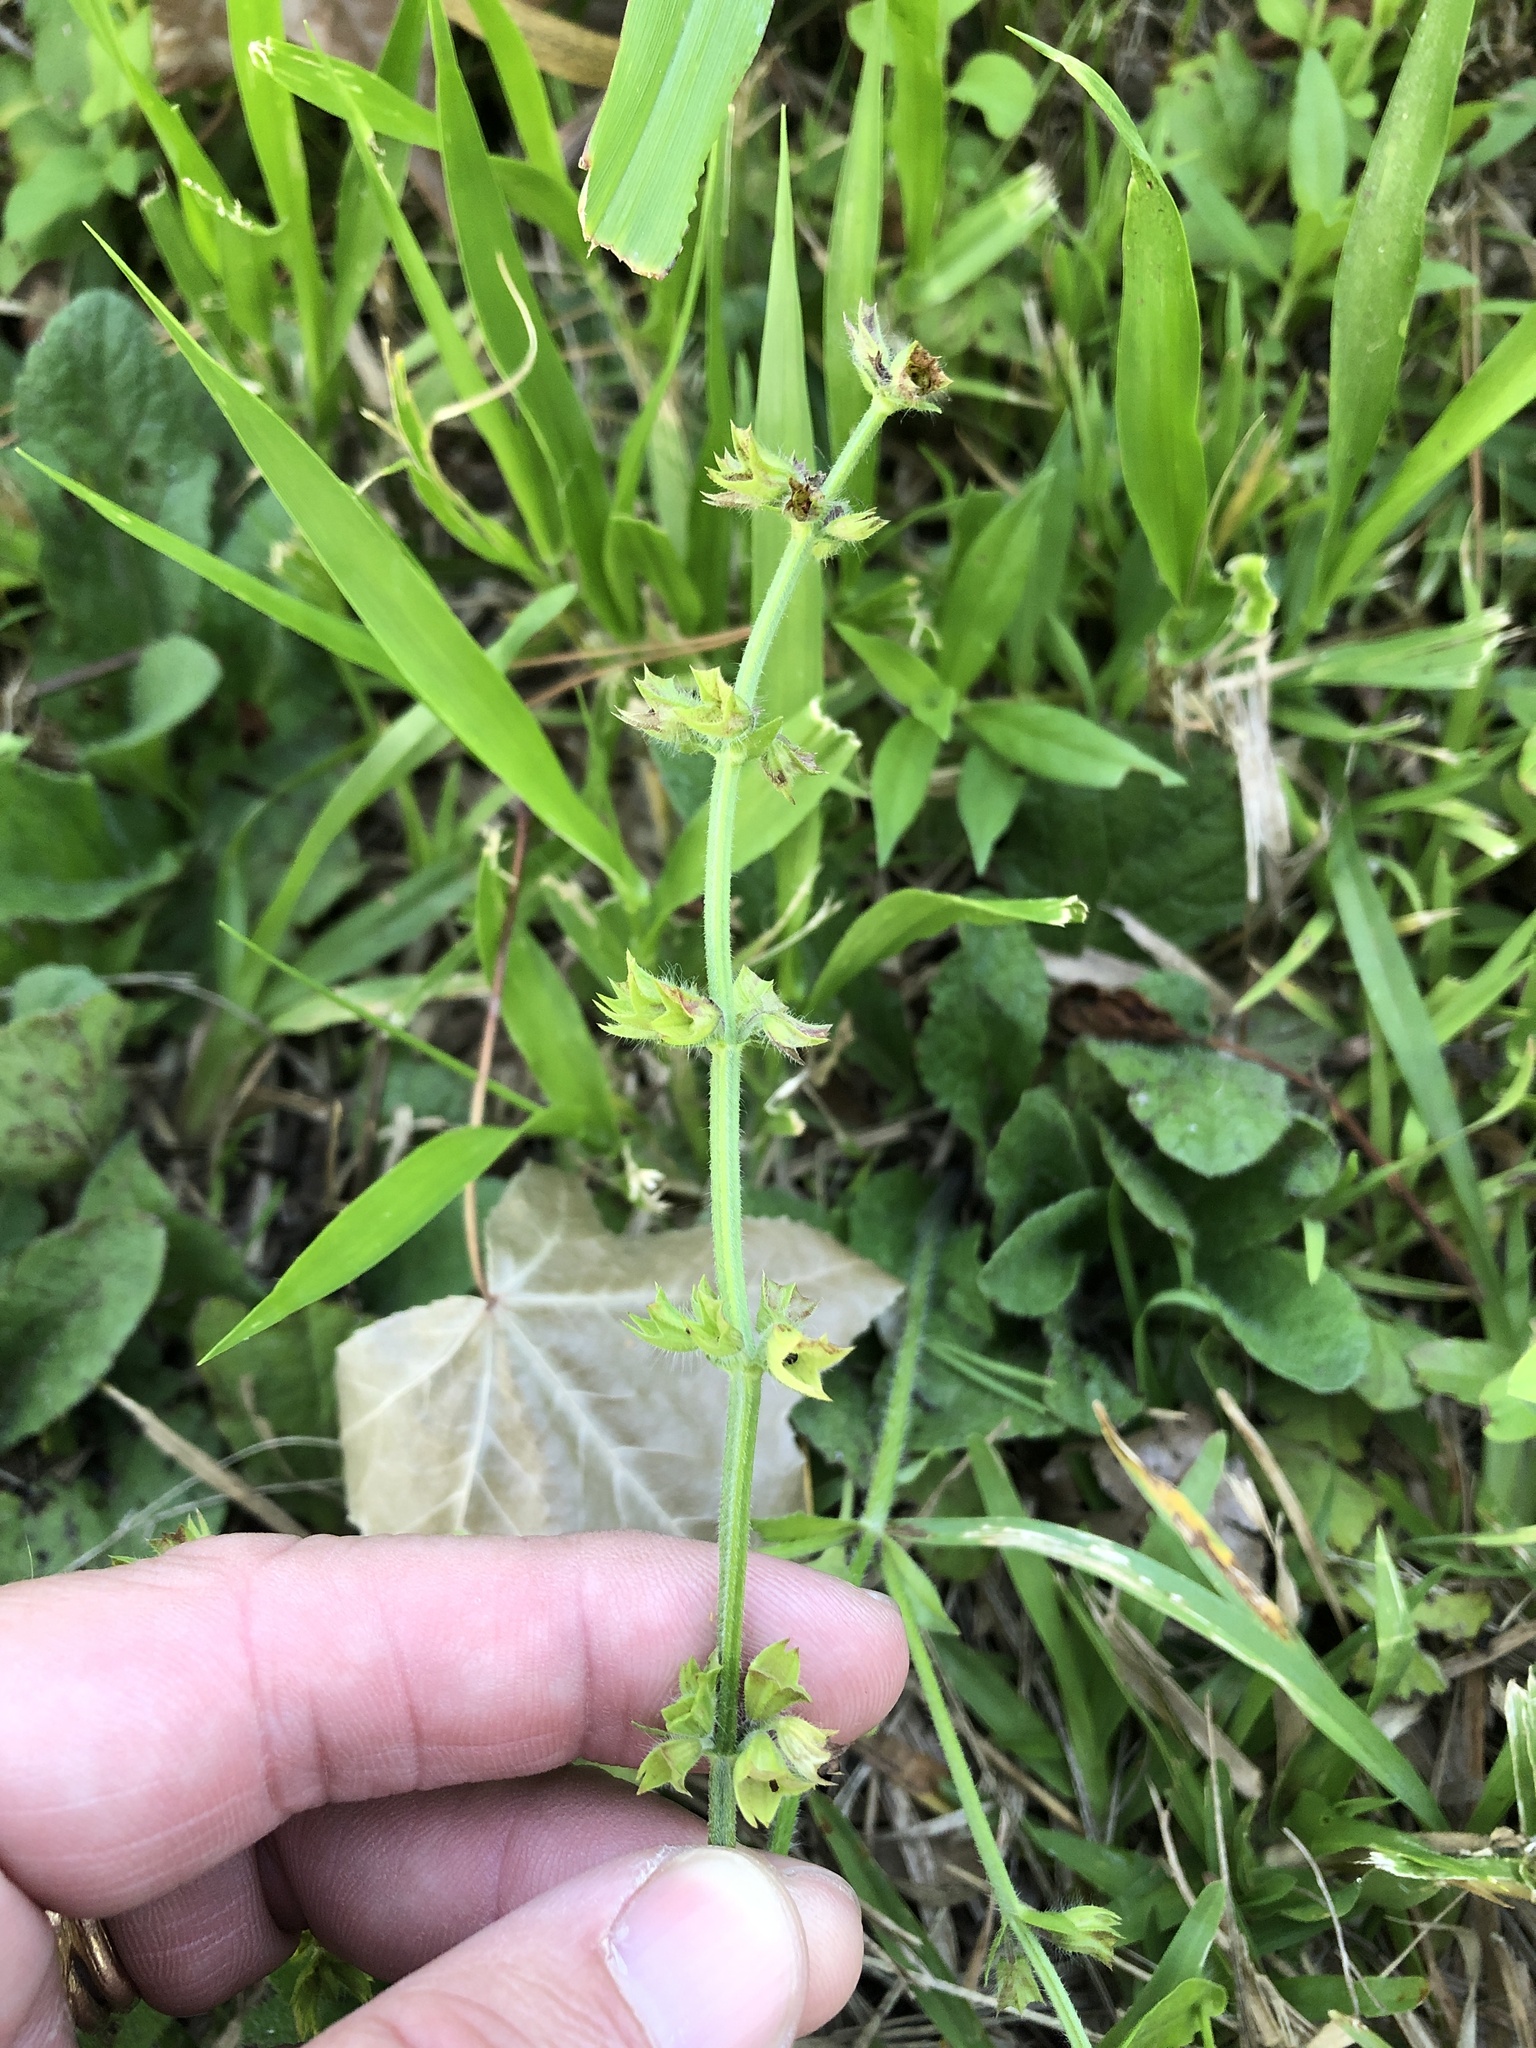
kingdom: Plantae
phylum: Tracheophyta
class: Magnoliopsida
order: Lamiales
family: Lamiaceae
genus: Salvia
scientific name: Salvia lyrata
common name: Cancerweed
